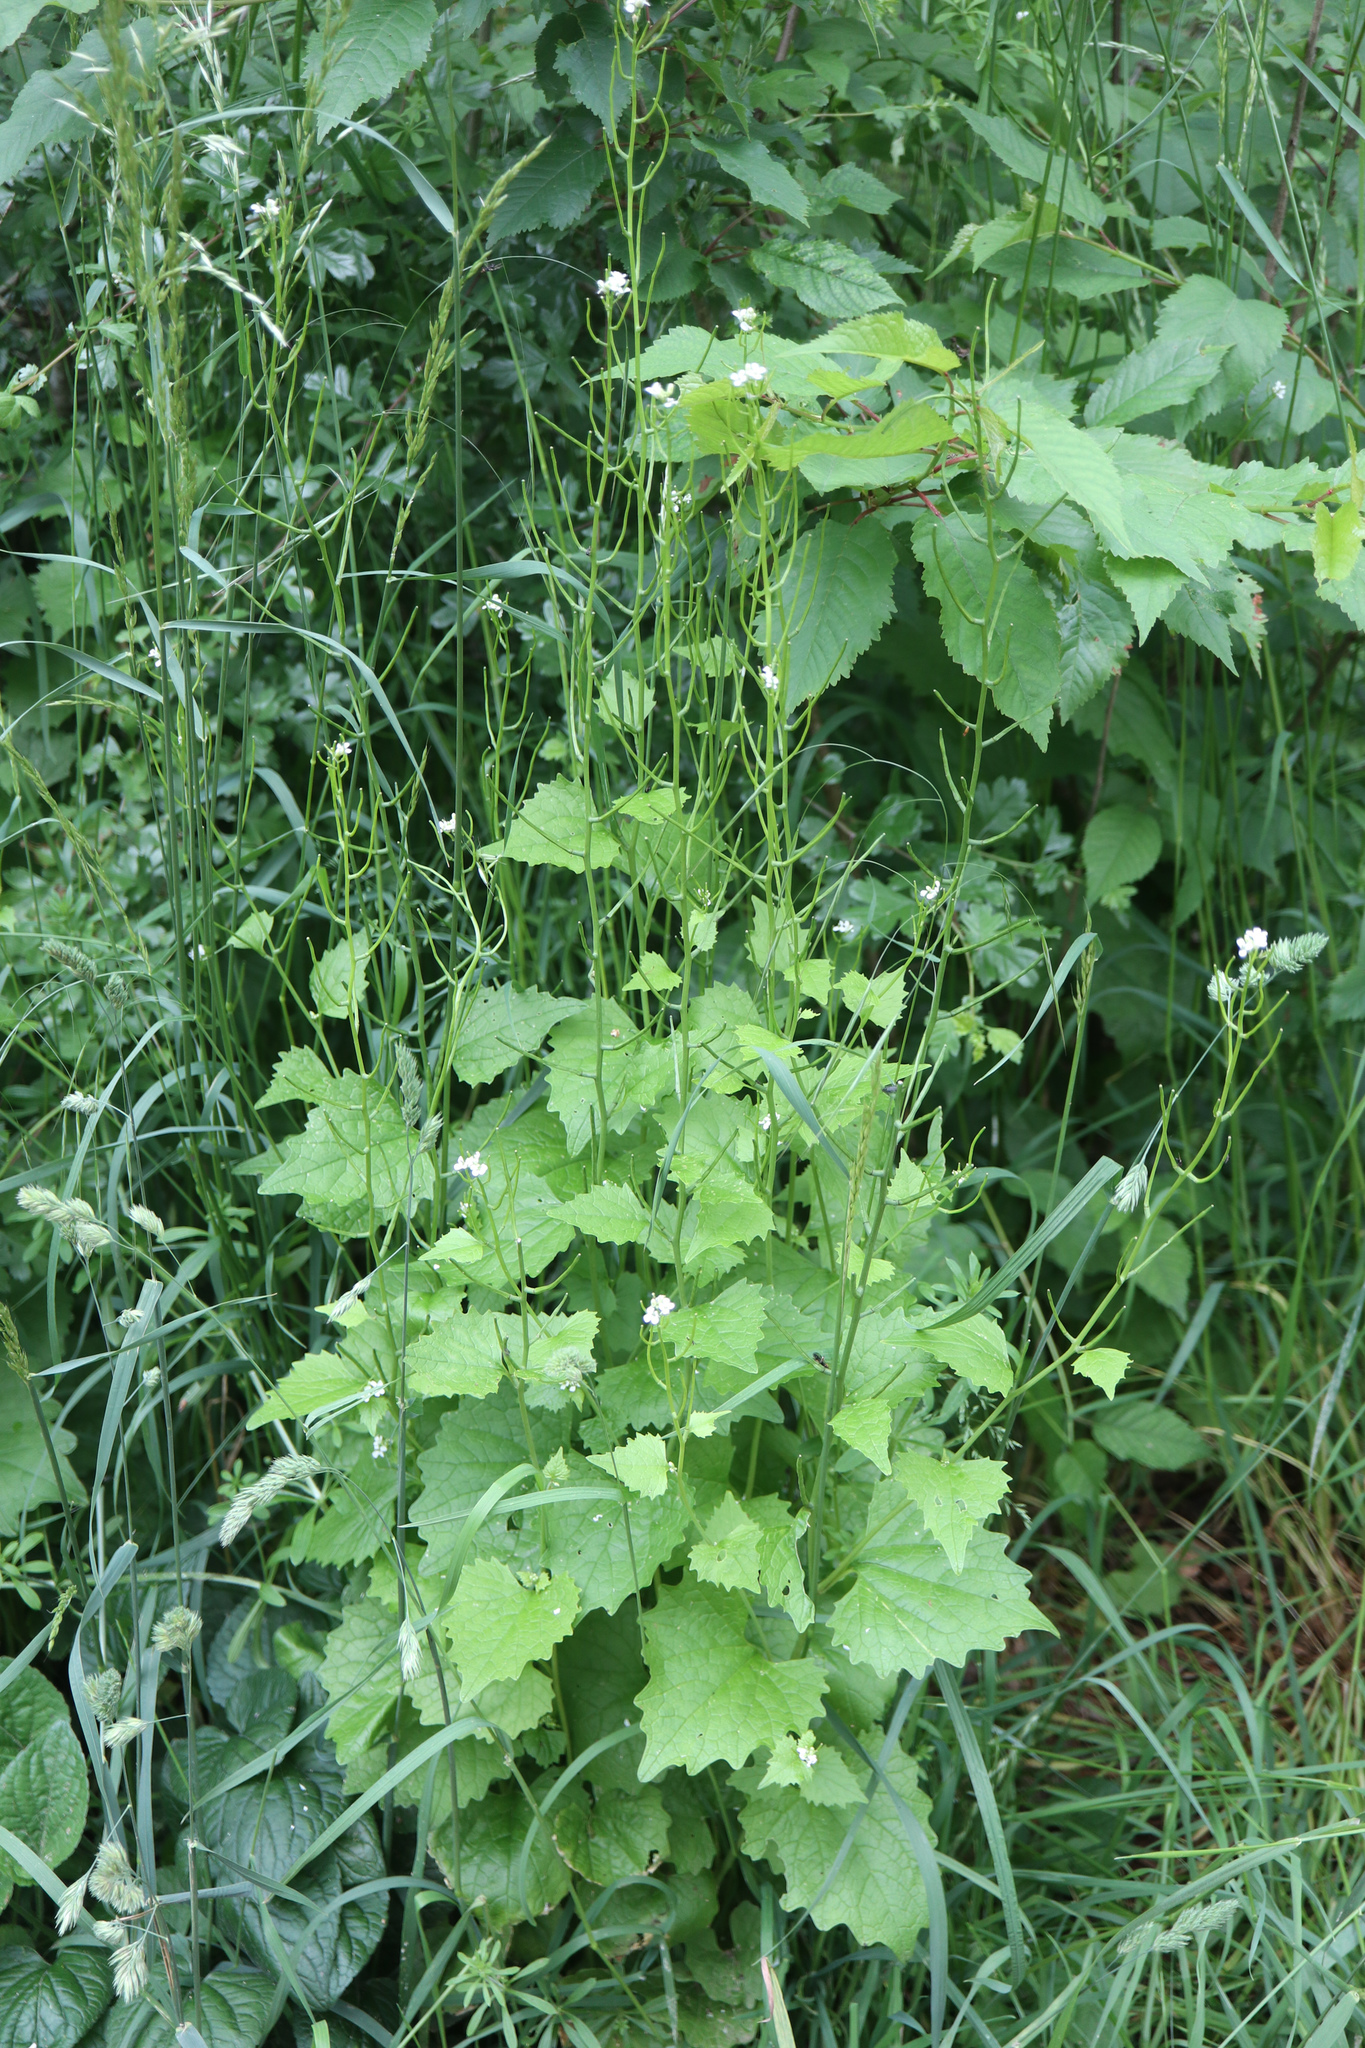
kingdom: Plantae
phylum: Tracheophyta
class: Magnoliopsida
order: Brassicales
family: Brassicaceae
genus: Alliaria
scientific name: Alliaria petiolata
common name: Garlic mustard
